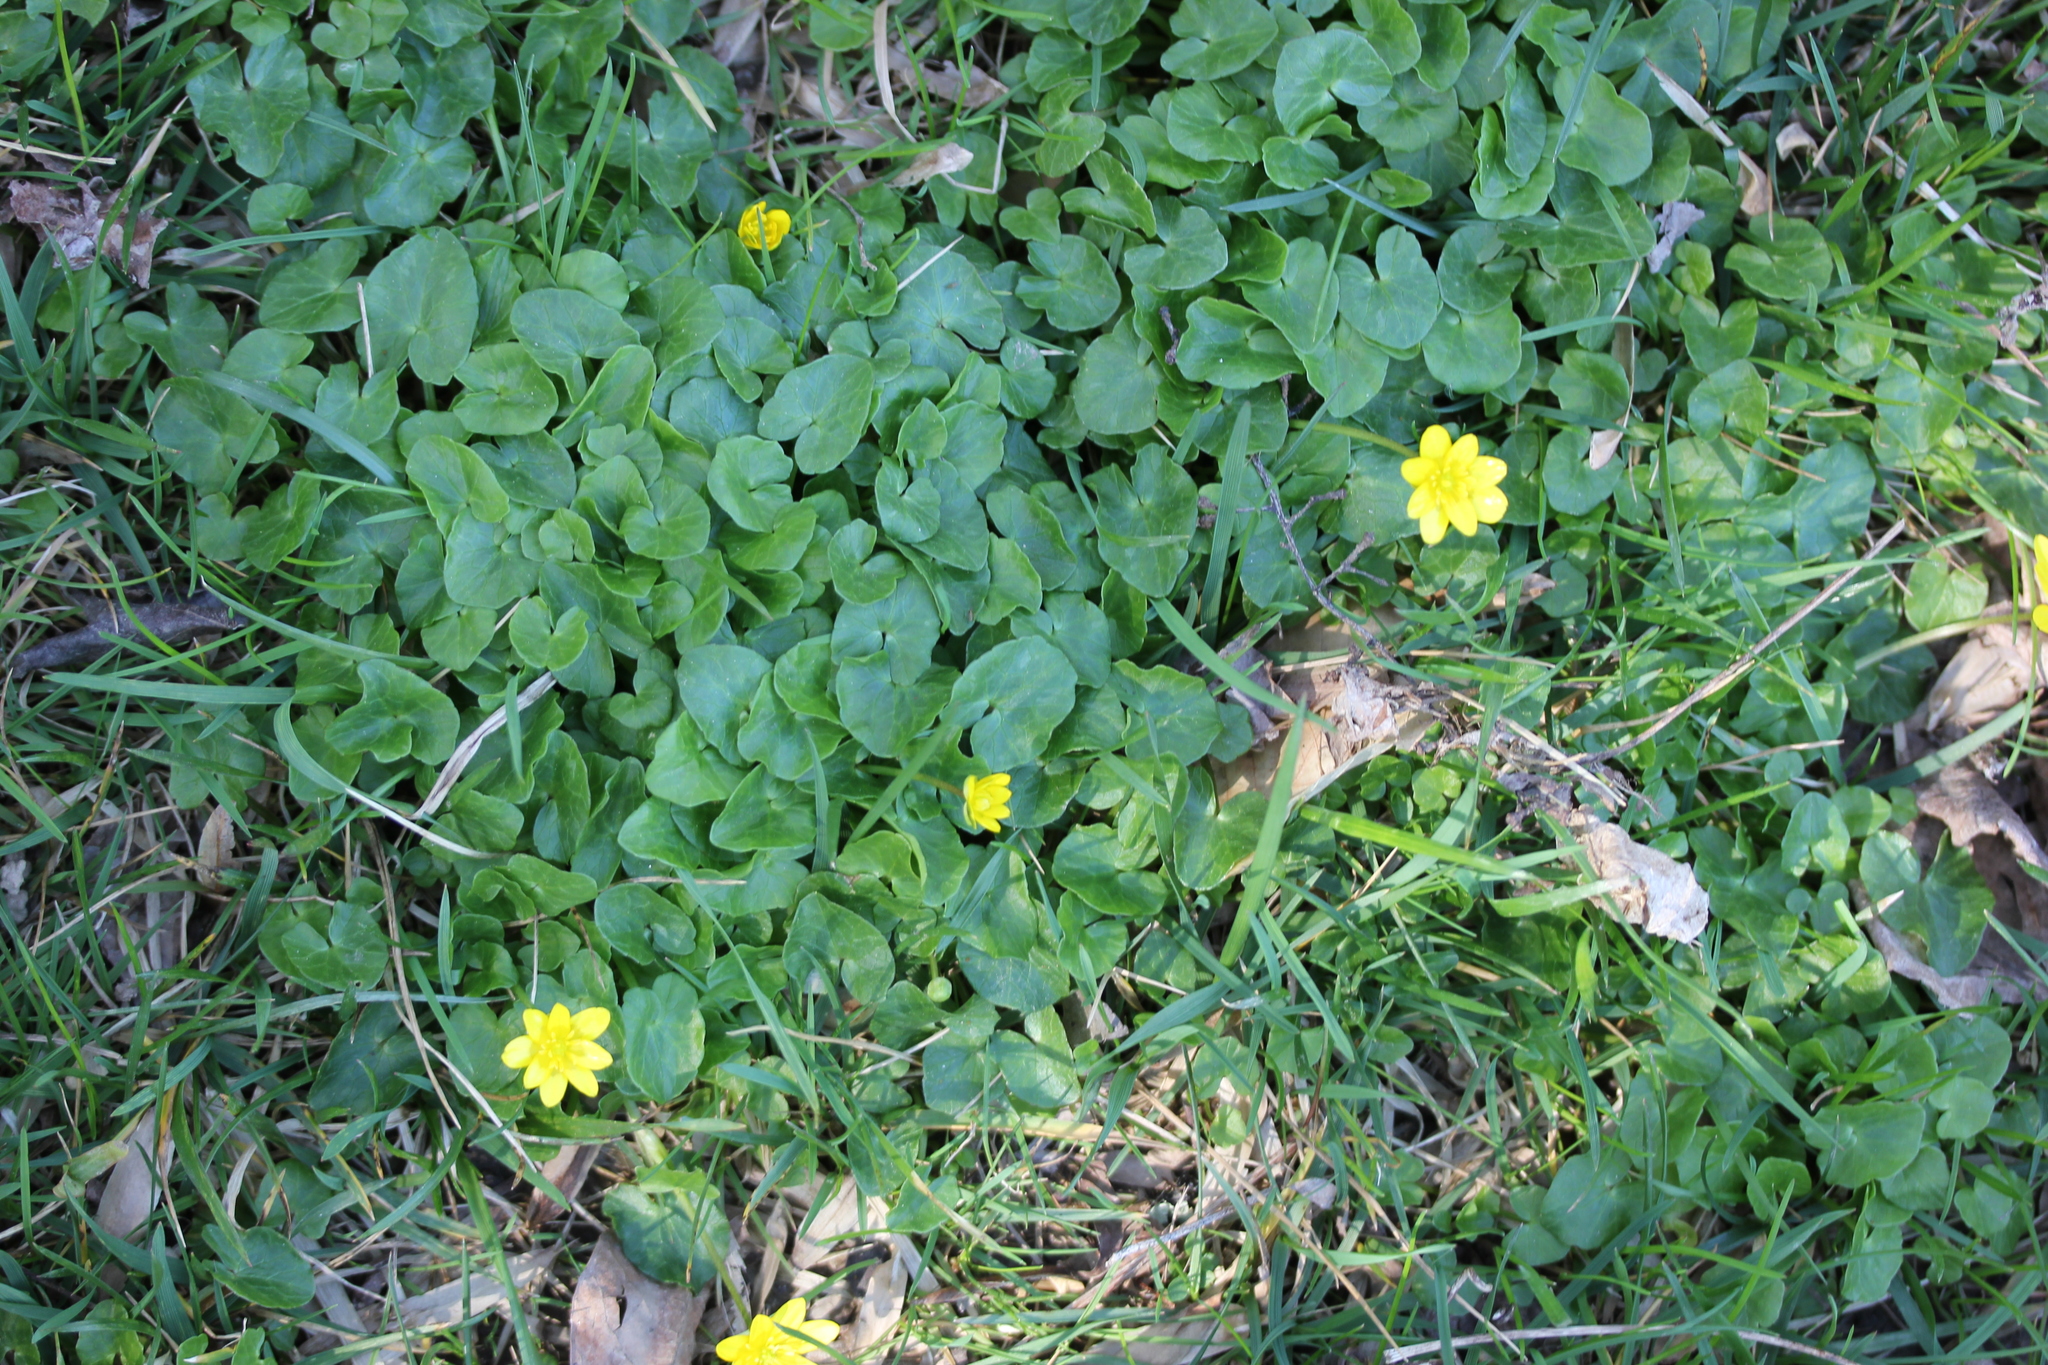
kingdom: Plantae
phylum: Tracheophyta
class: Magnoliopsida
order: Ranunculales
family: Ranunculaceae
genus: Ficaria
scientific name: Ficaria verna
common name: Lesser celandine
